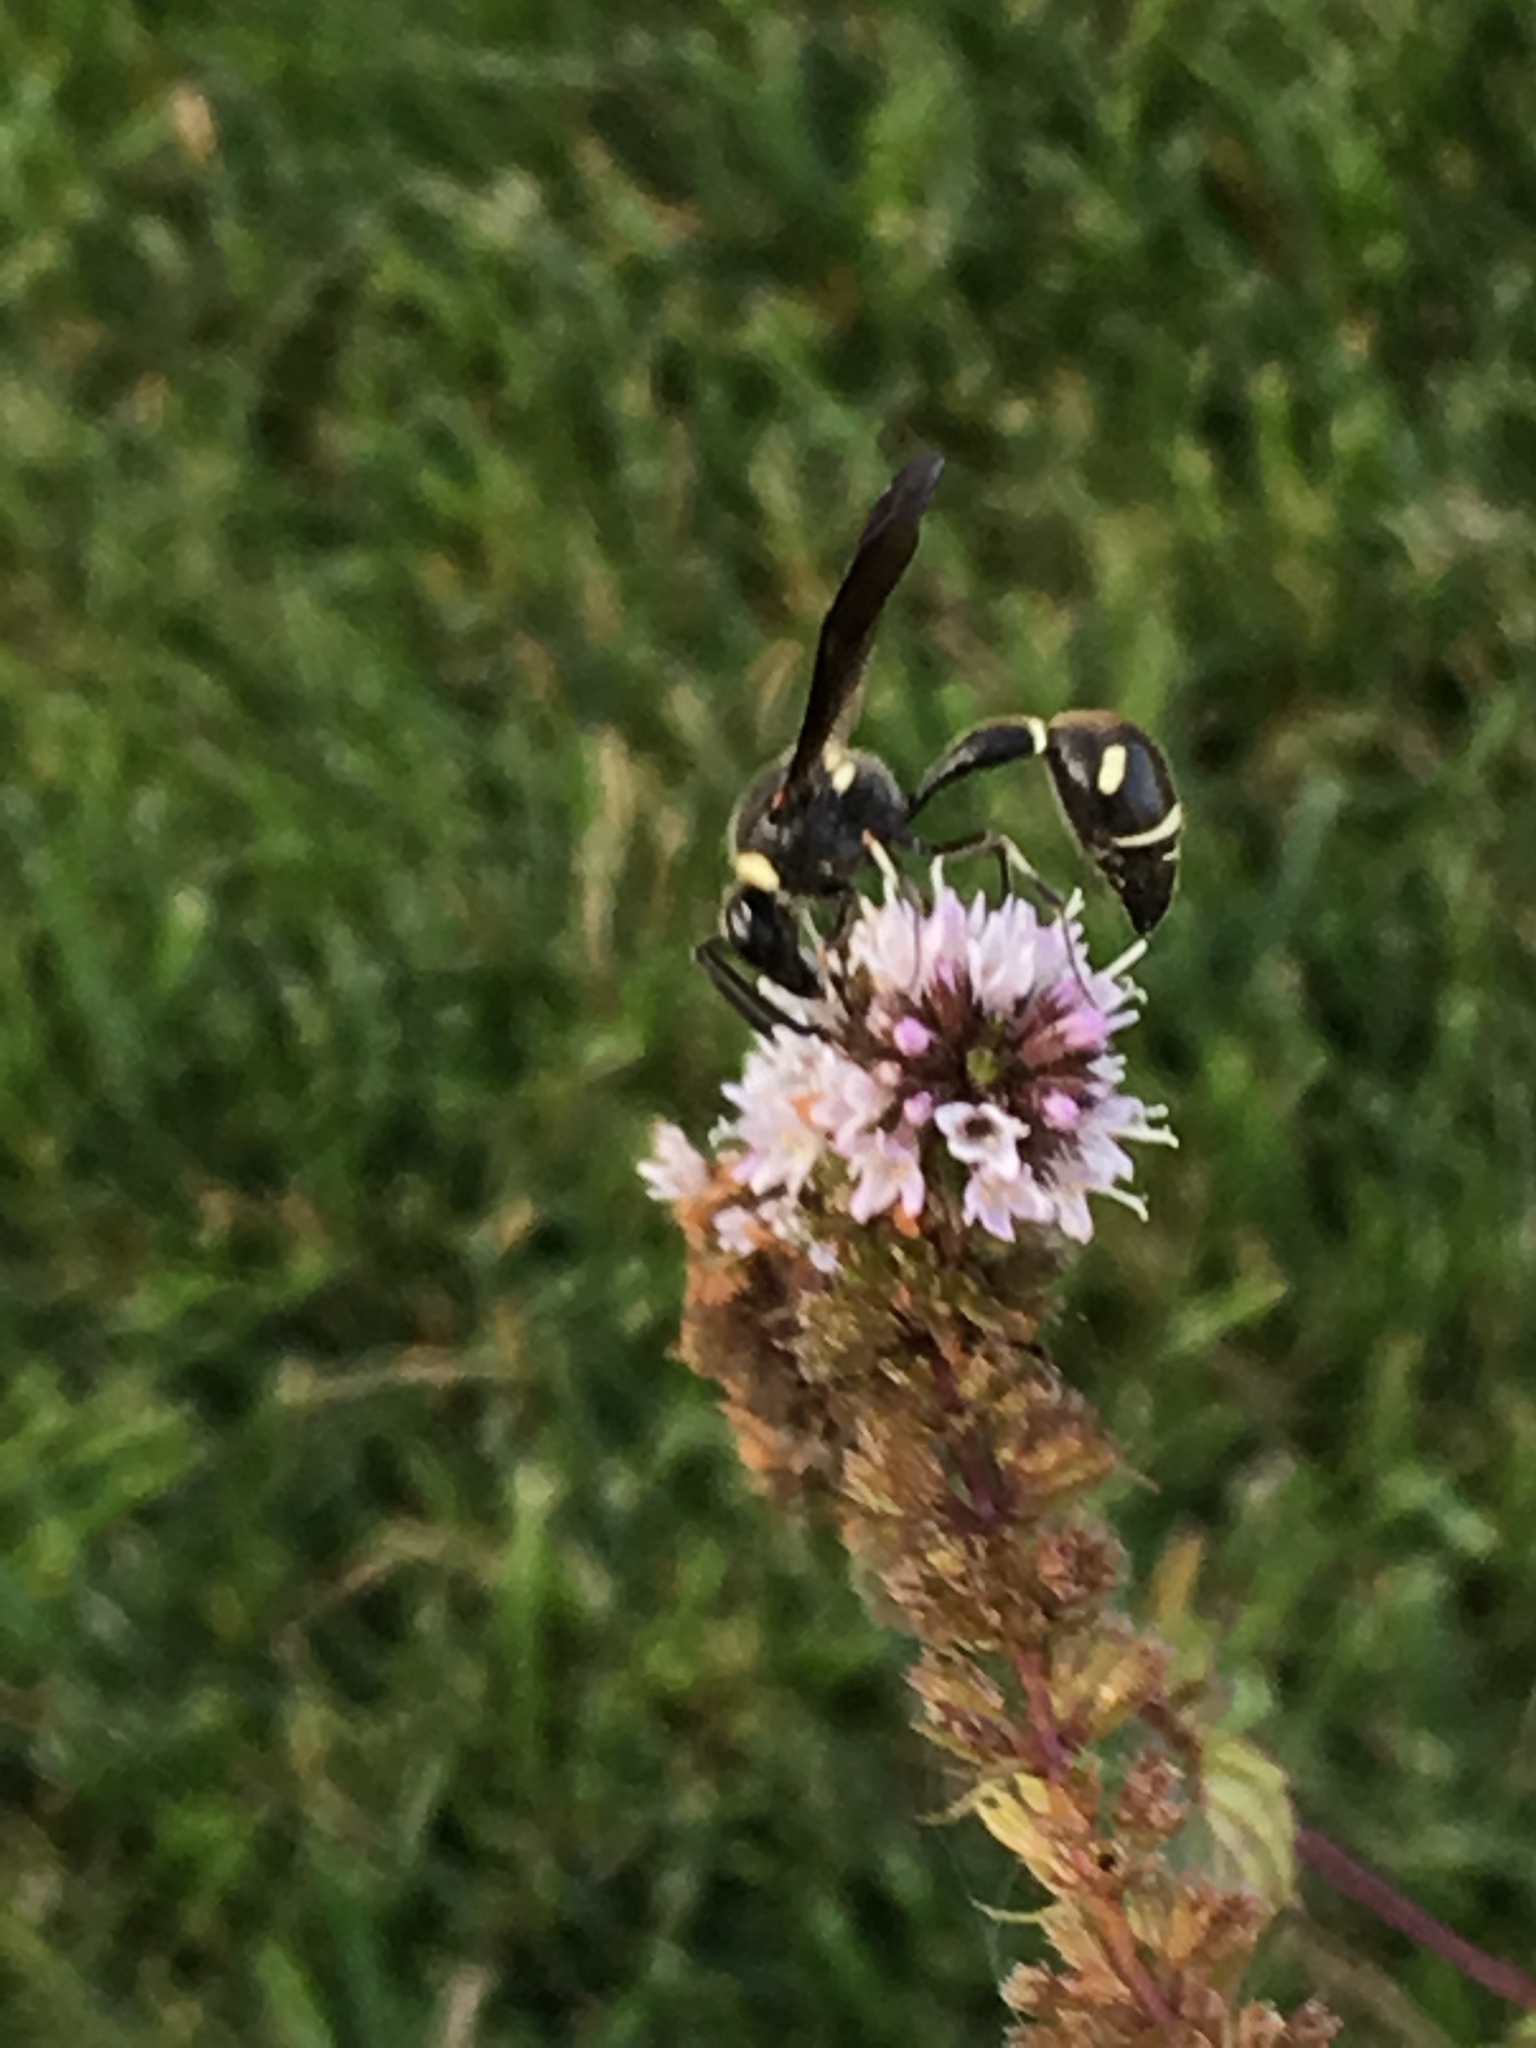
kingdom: Animalia
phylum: Arthropoda
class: Insecta
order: Hymenoptera
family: Vespidae
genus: Eumenes
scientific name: Eumenes fraternus
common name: Fraternal potter wasp
